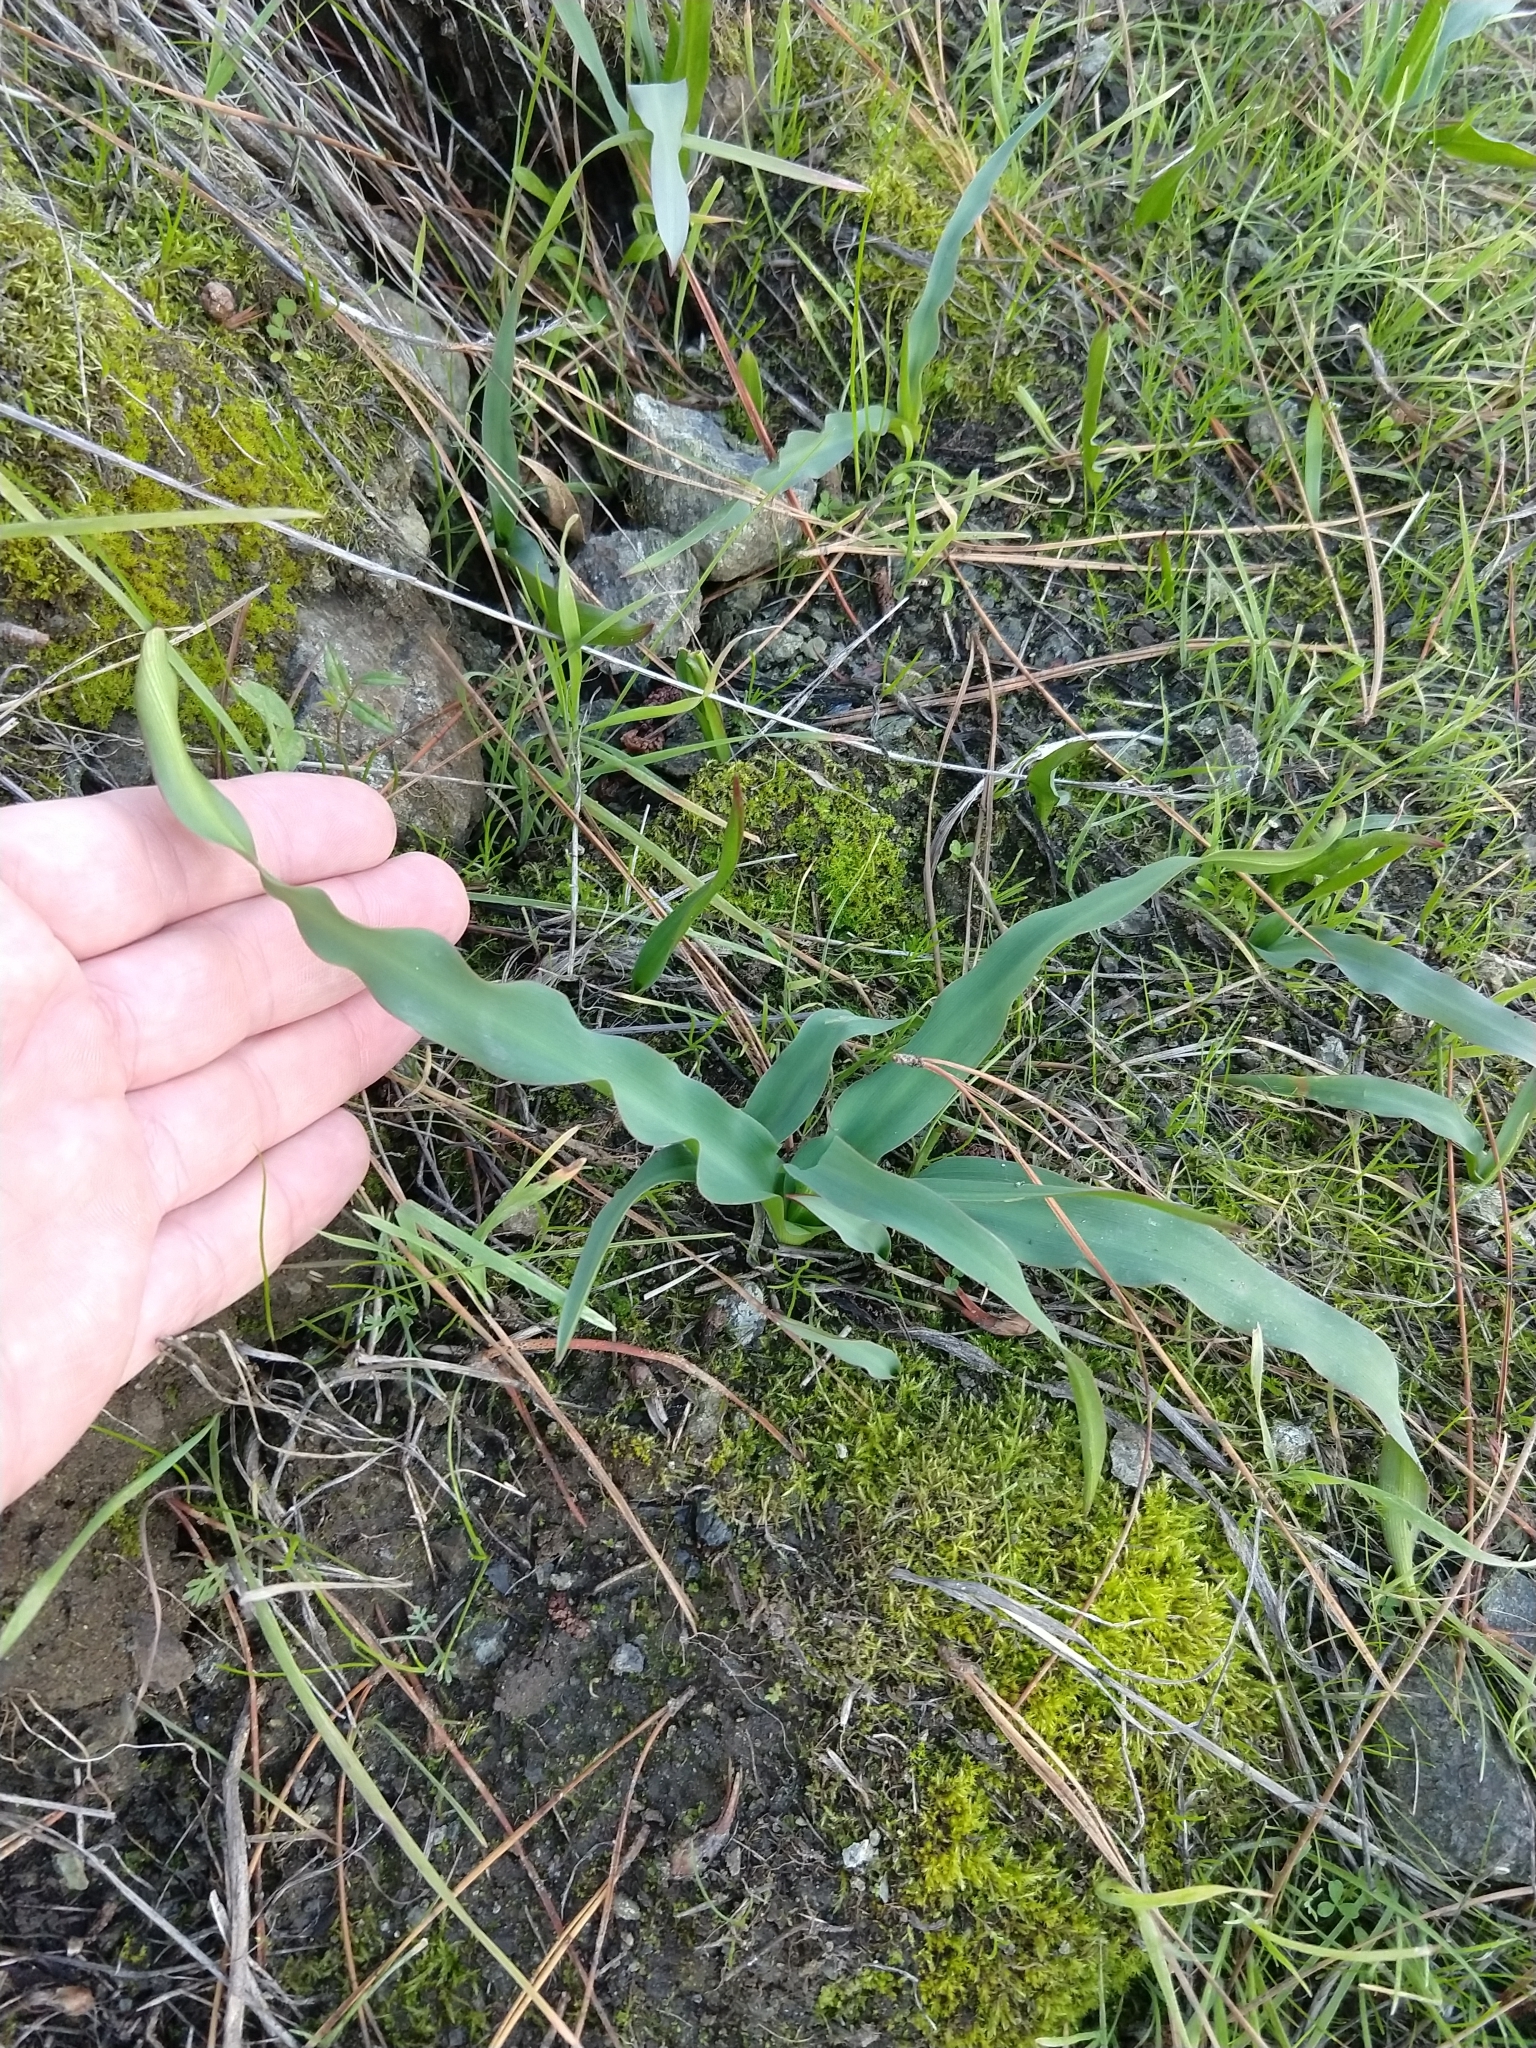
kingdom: Plantae
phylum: Tracheophyta
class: Liliopsida
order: Asparagales
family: Asparagaceae
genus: Chlorogalum
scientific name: Chlorogalum pomeridianum
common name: Amole
